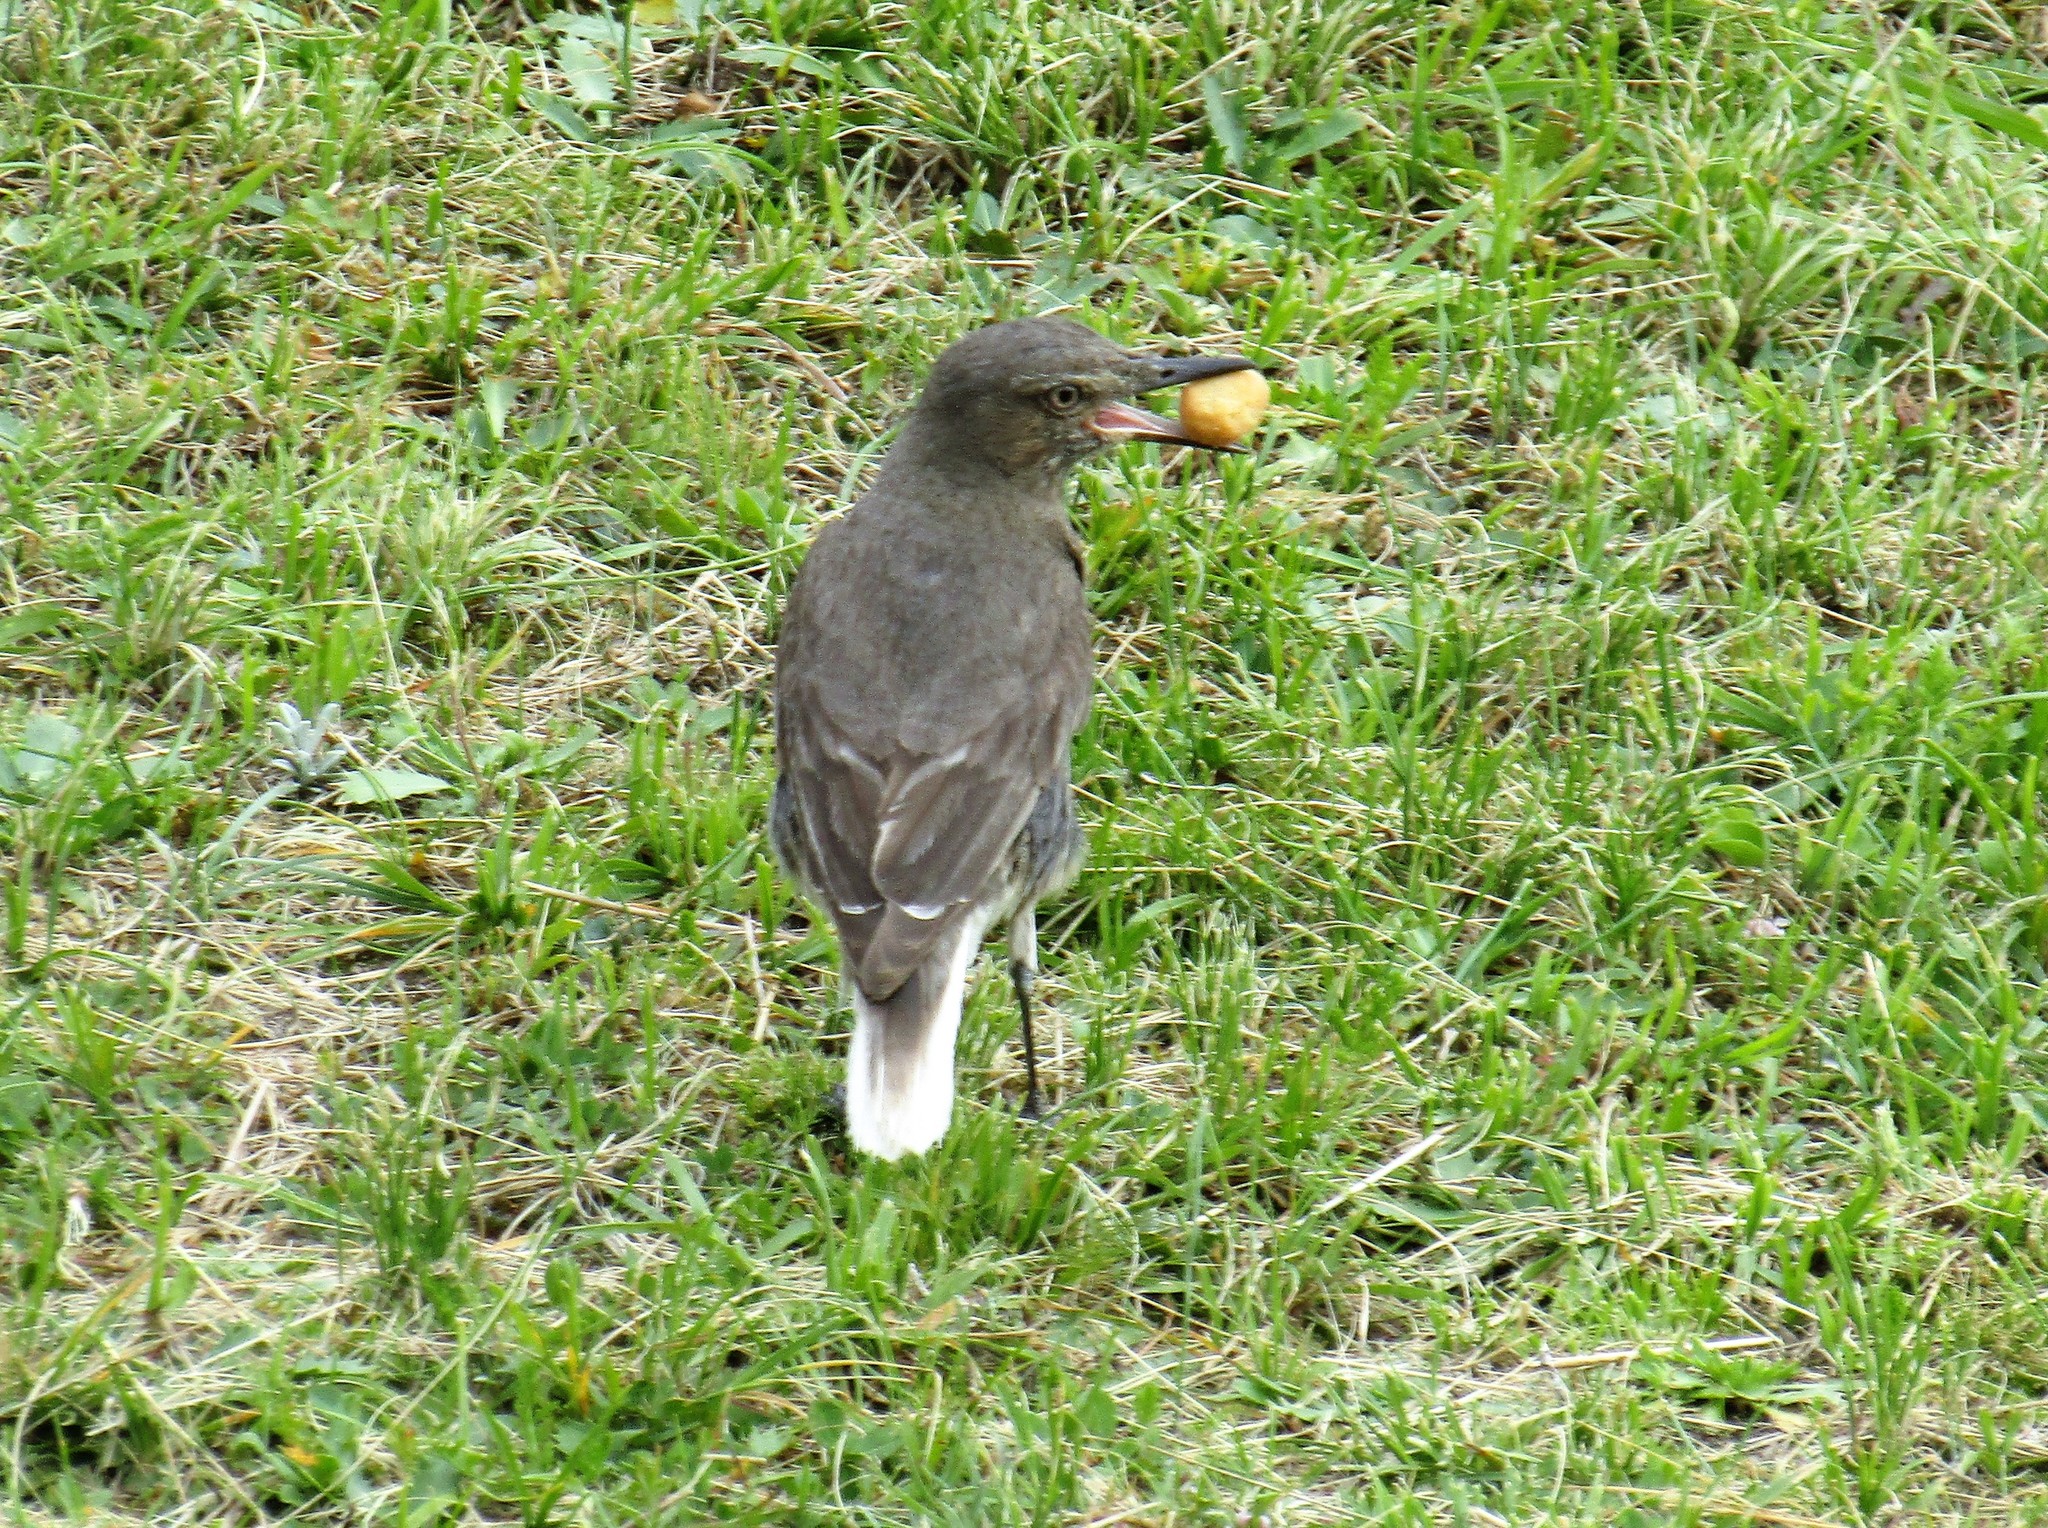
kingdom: Animalia
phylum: Chordata
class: Aves
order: Passeriformes
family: Tyrannidae
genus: Agriornis
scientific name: Agriornis montanus
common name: Black-billed shrike-tyrant
